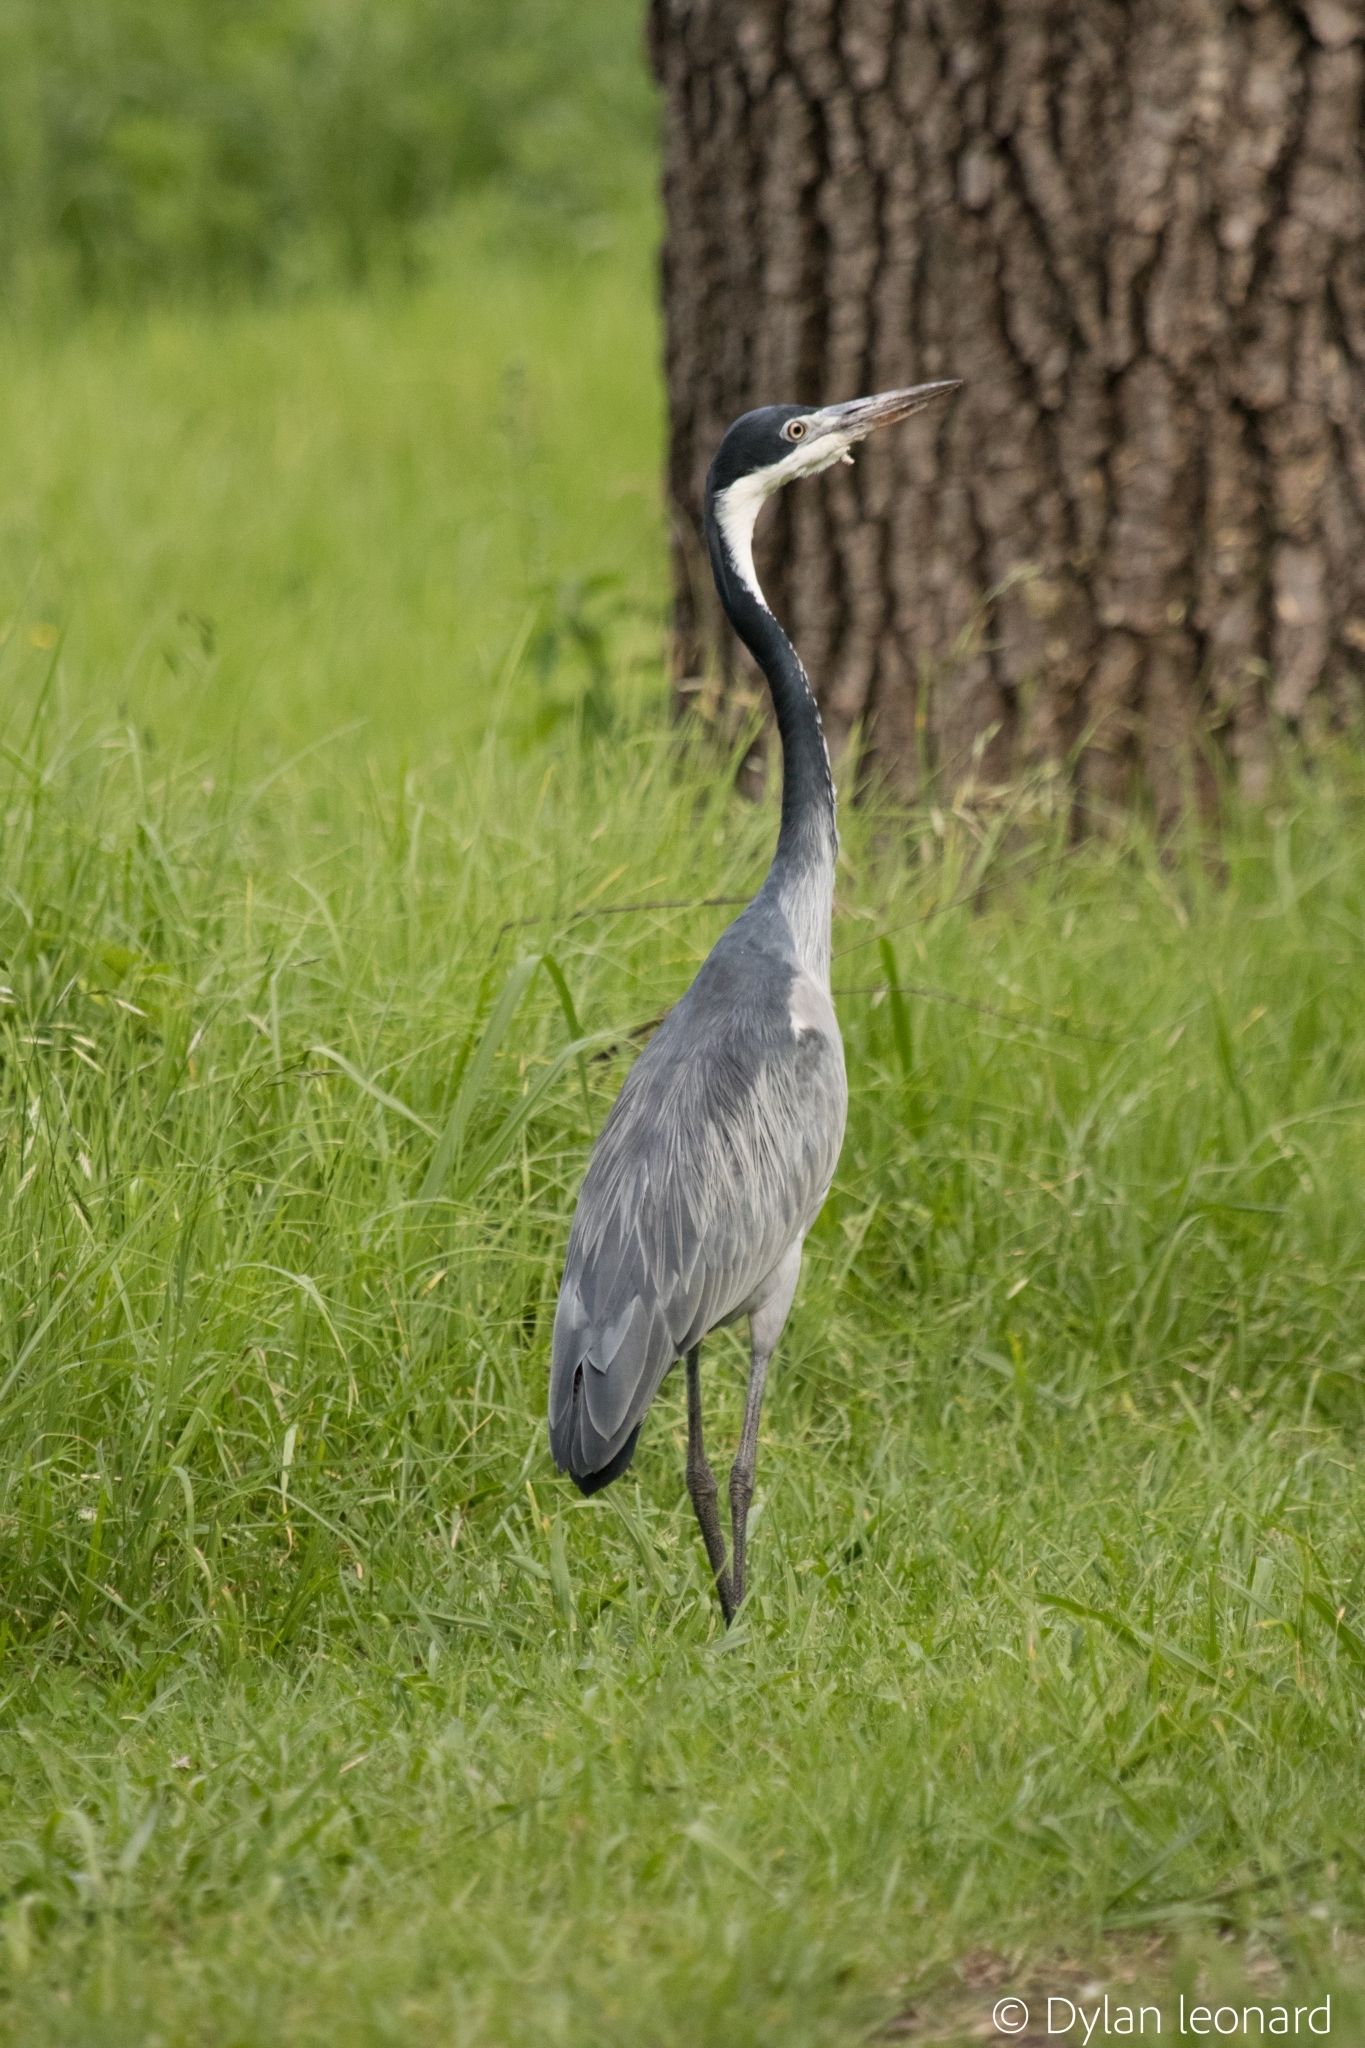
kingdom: Animalia
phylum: Chordata
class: Aves
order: Pelecaniformes
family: Ardeidae
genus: Ardea
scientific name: Ardea melanocephala
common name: Black-headed heron
